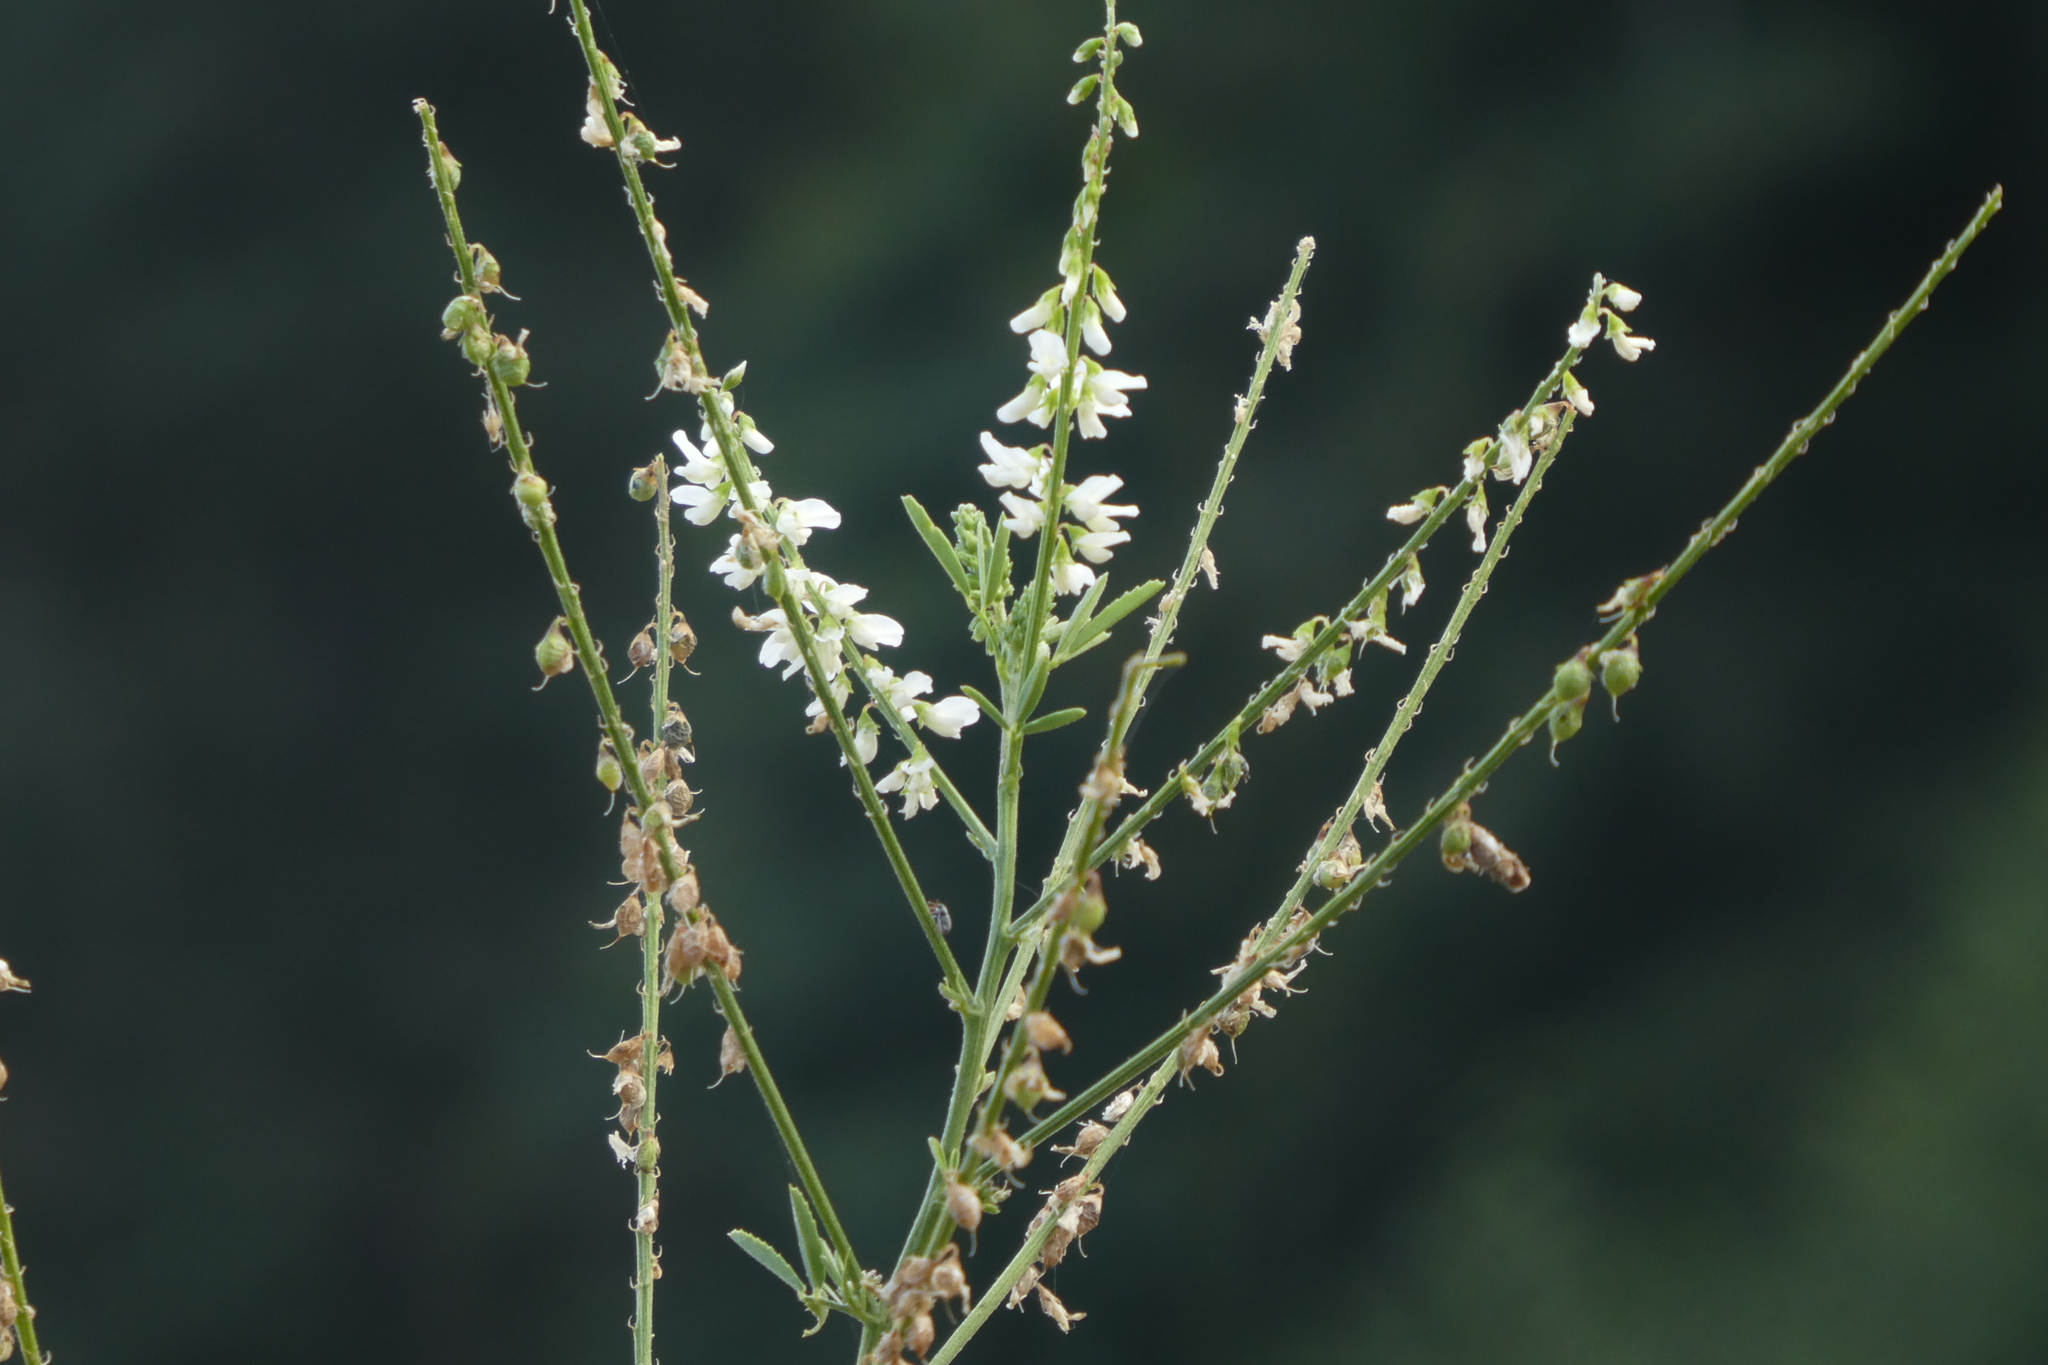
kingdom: Plantae
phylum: Tracheophyta
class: Magnoliopsida
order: Fabales
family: Fabaceae
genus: Melilotus
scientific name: Melilotus albus
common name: White melilot
